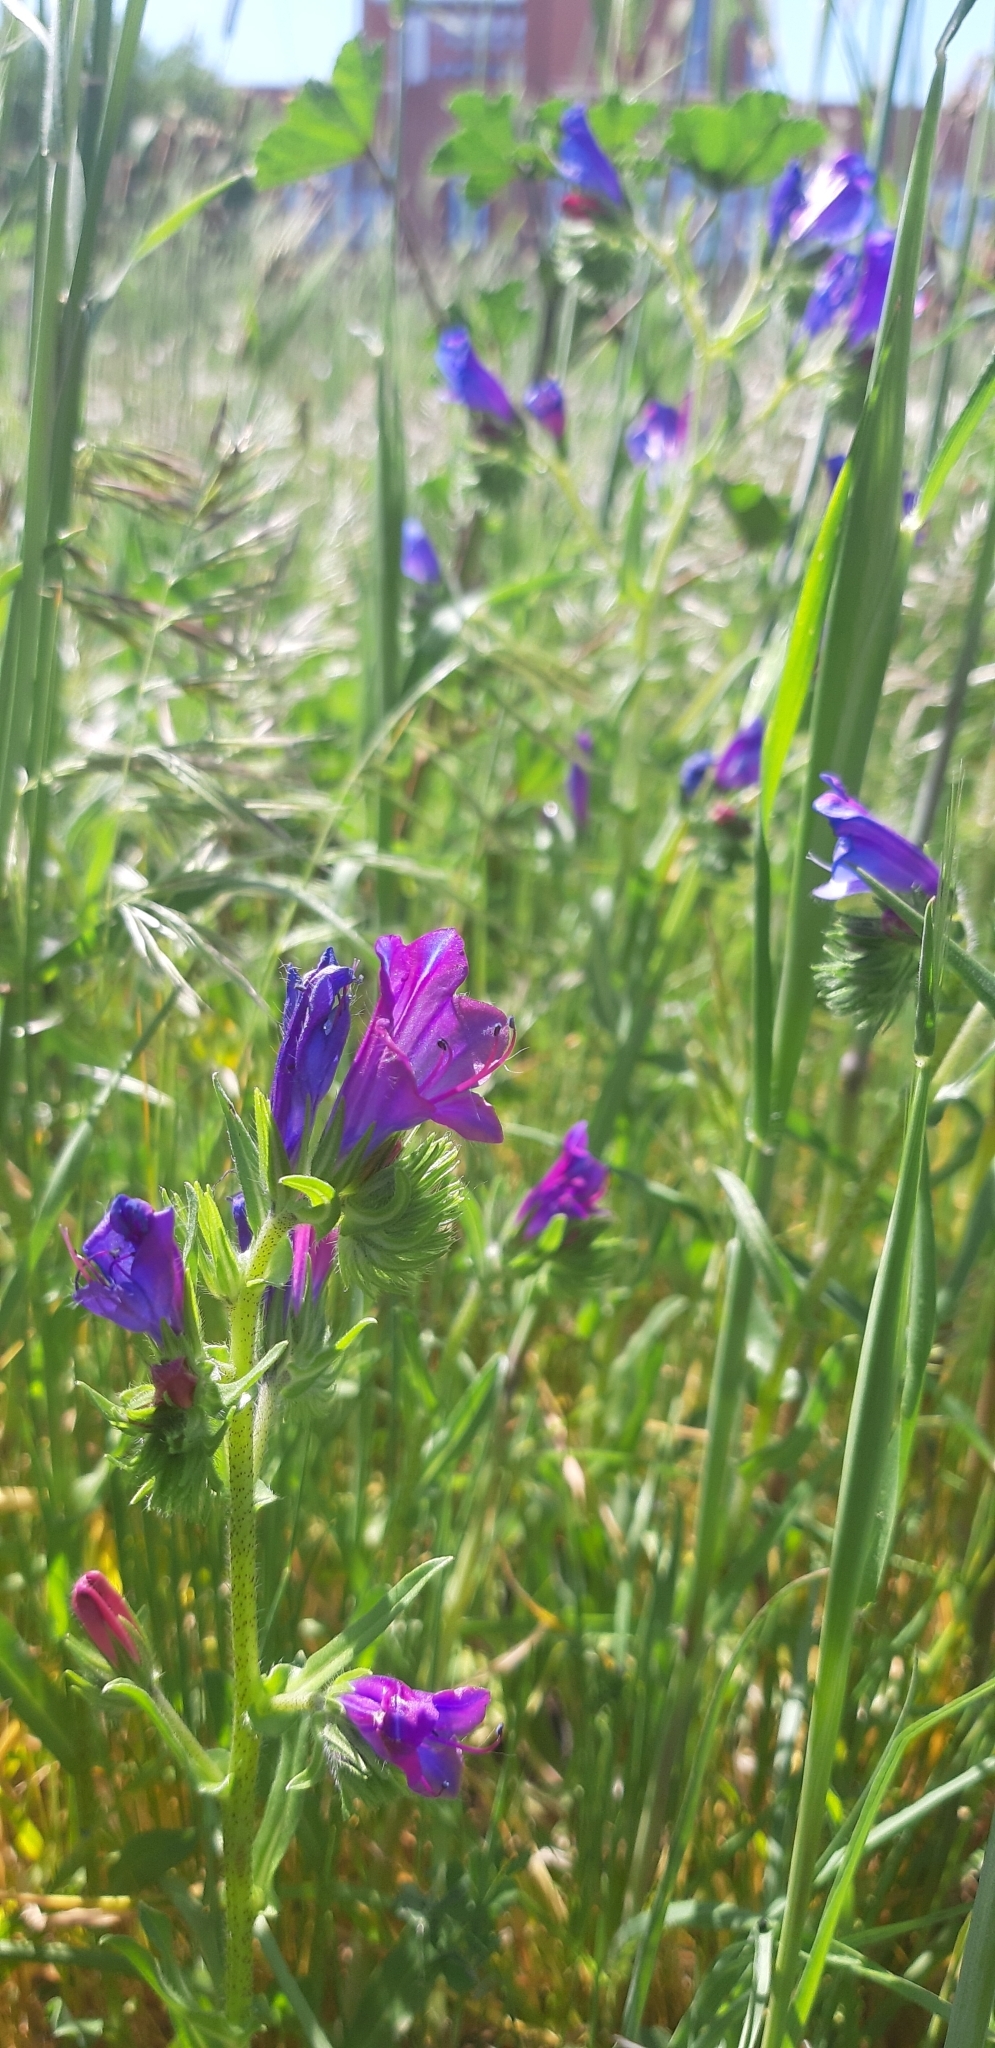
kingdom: Plantae
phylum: Tracheophyta
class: Magnoliopsida
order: Boraginales
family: Boraginaceae
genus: Echium
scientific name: Echium plantagineum
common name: Purple viper's-bugloss
